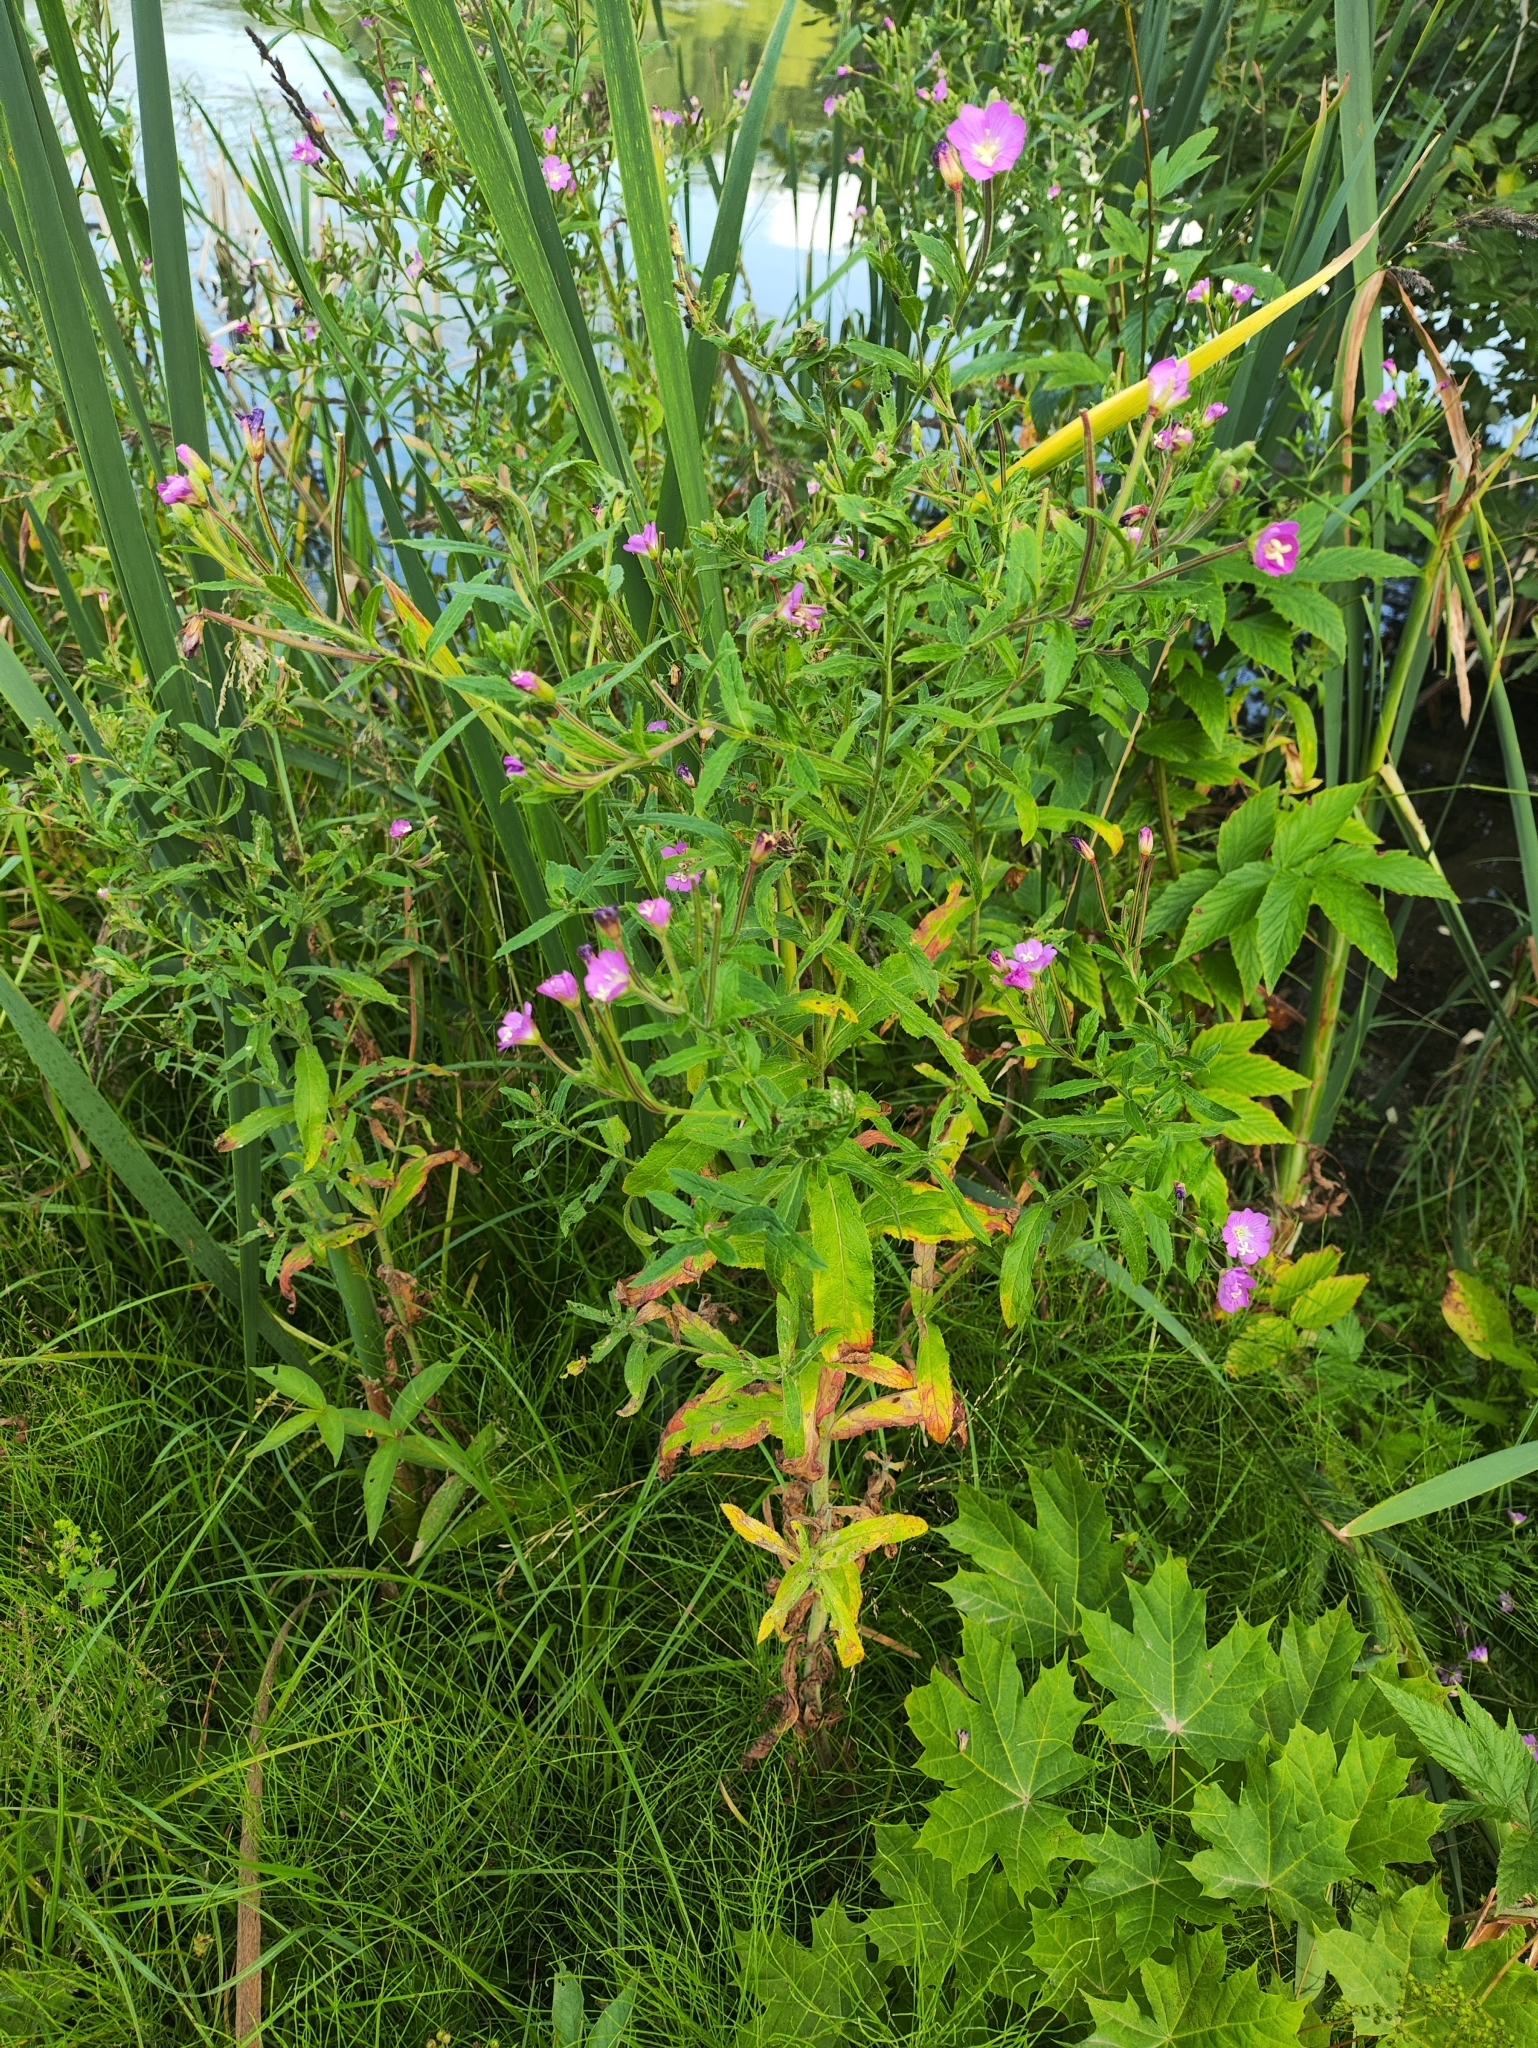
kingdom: Plantae
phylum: Tracheophyta
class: Magnoliopsida
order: Myrtales
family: Onagraceae
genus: Epilobium
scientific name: Epilobium hirsutum
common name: Great willowherb
